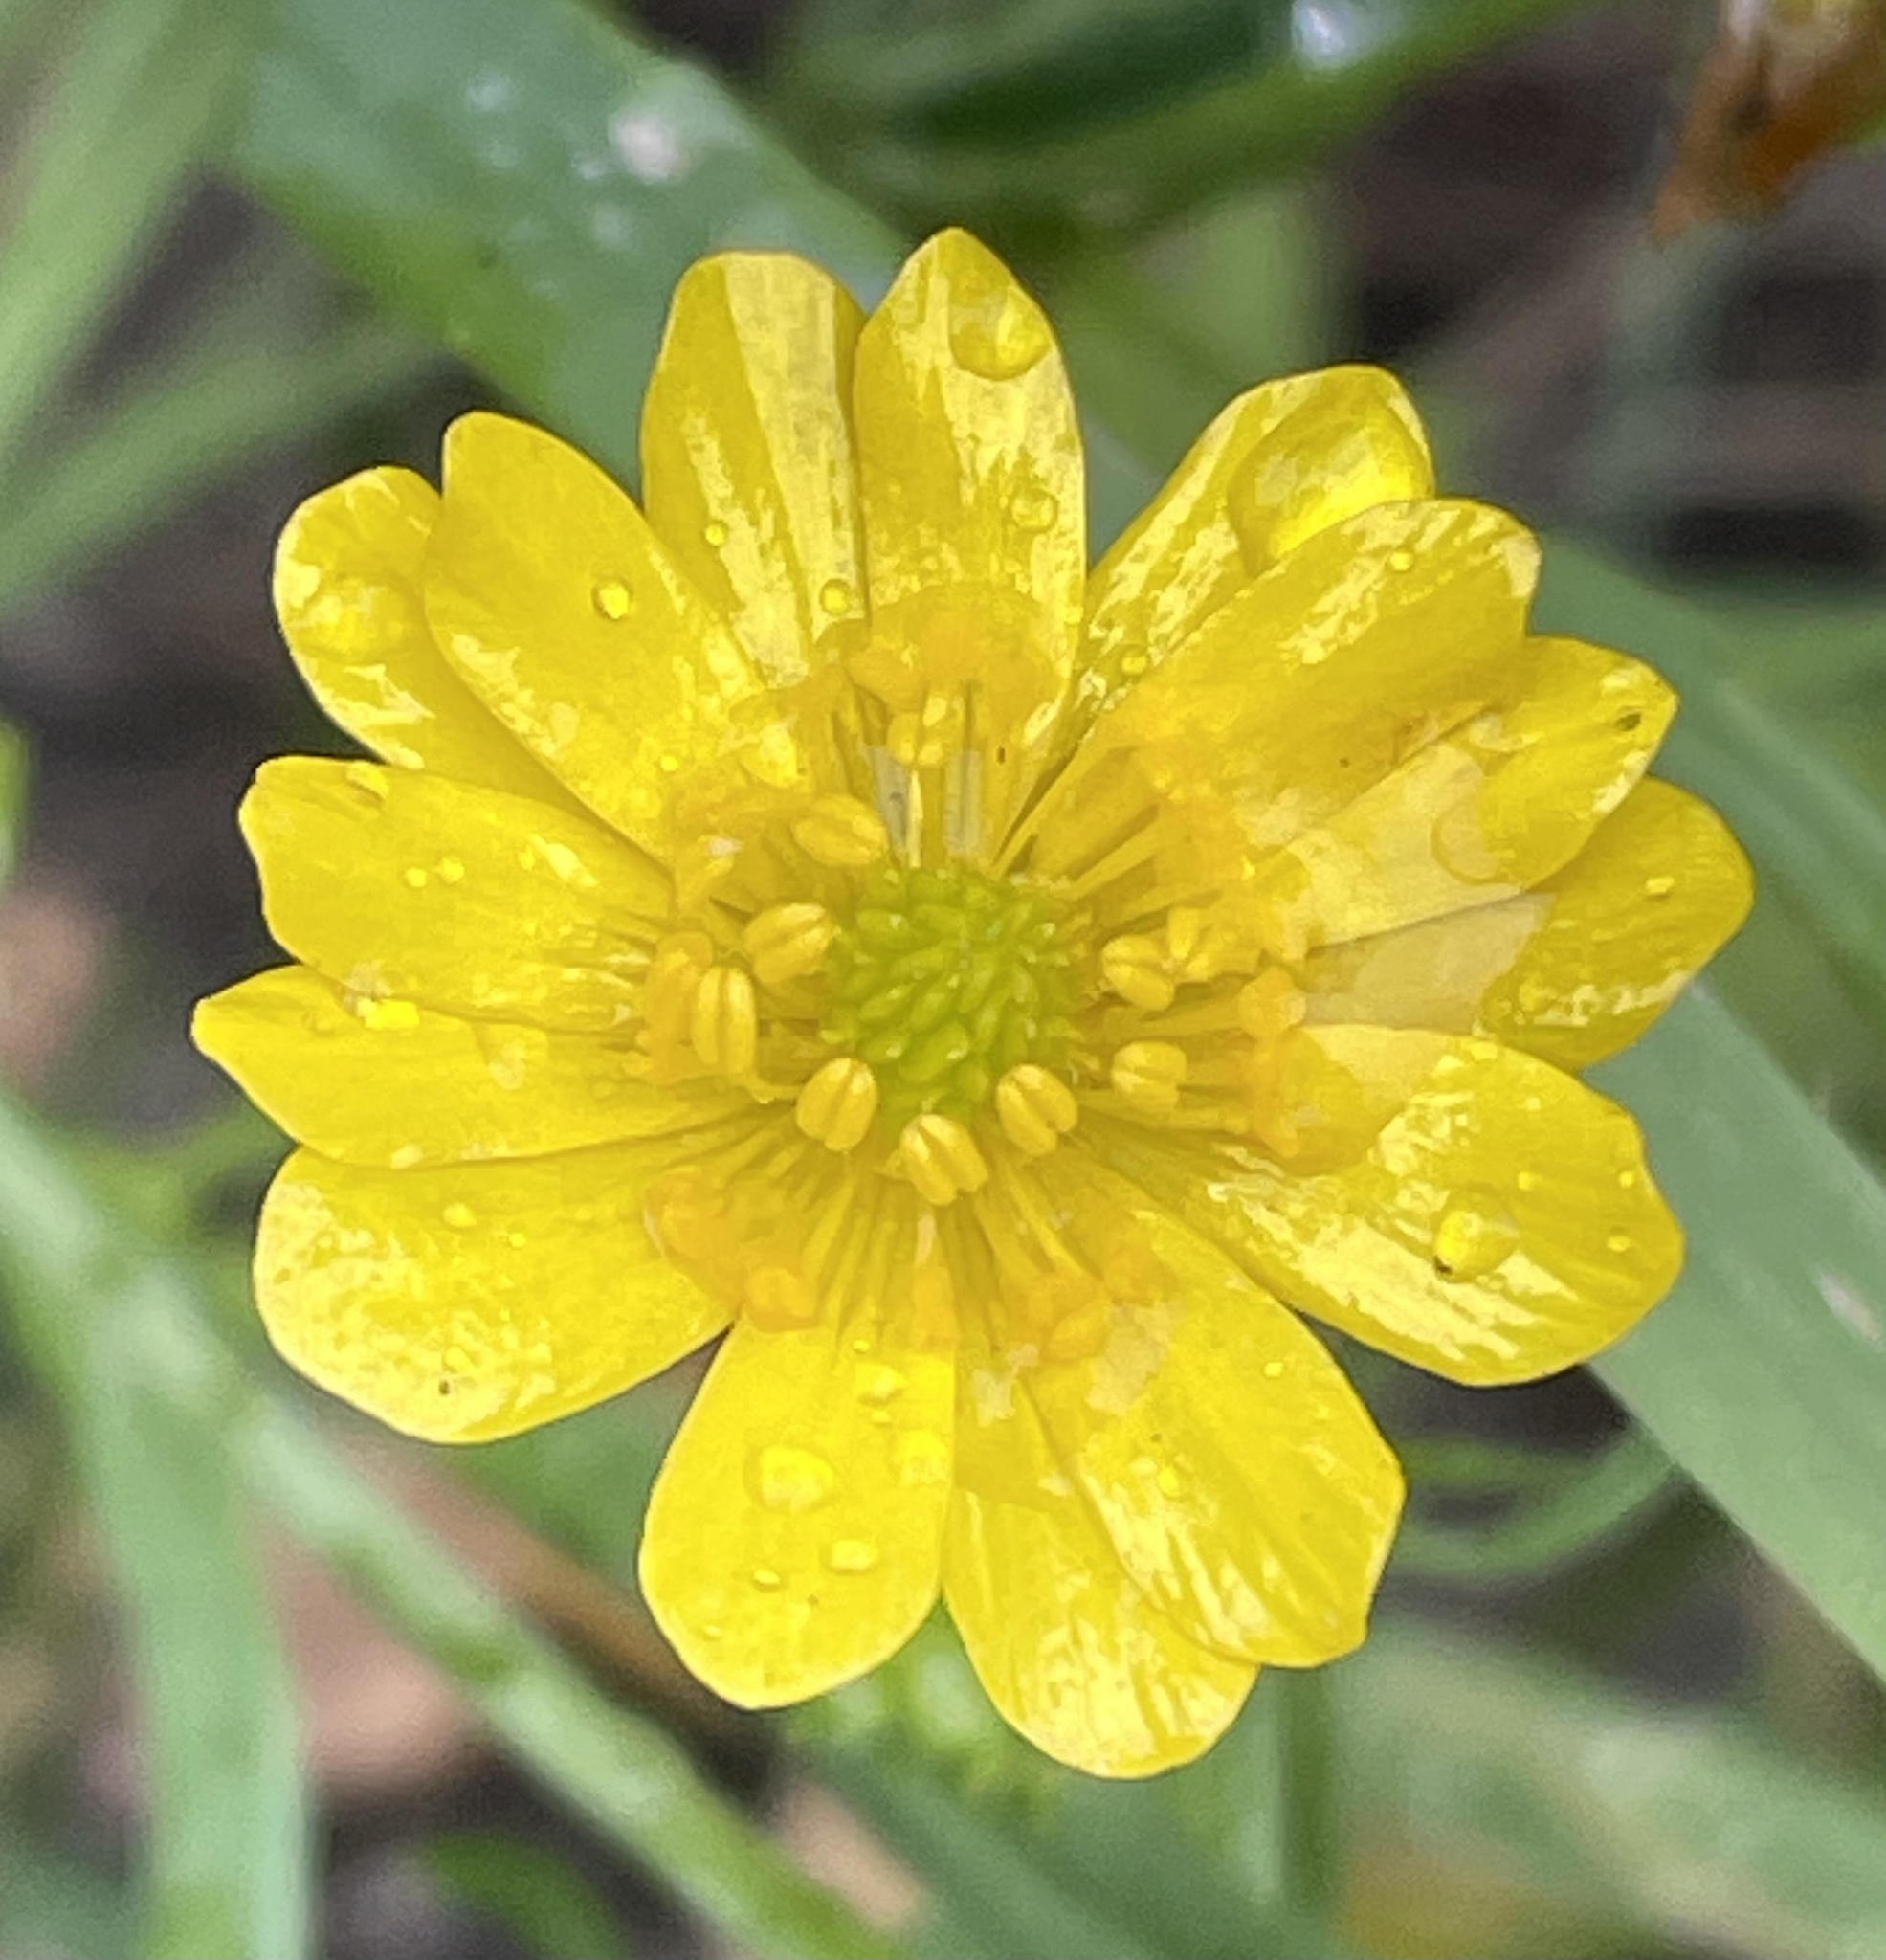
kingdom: Plantae
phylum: Tracheophyta
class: Magnoliopsida
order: Ranunculales
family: Ranunculaceae
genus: Ranunculus
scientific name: Ranunculus californicus
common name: California buttercup
